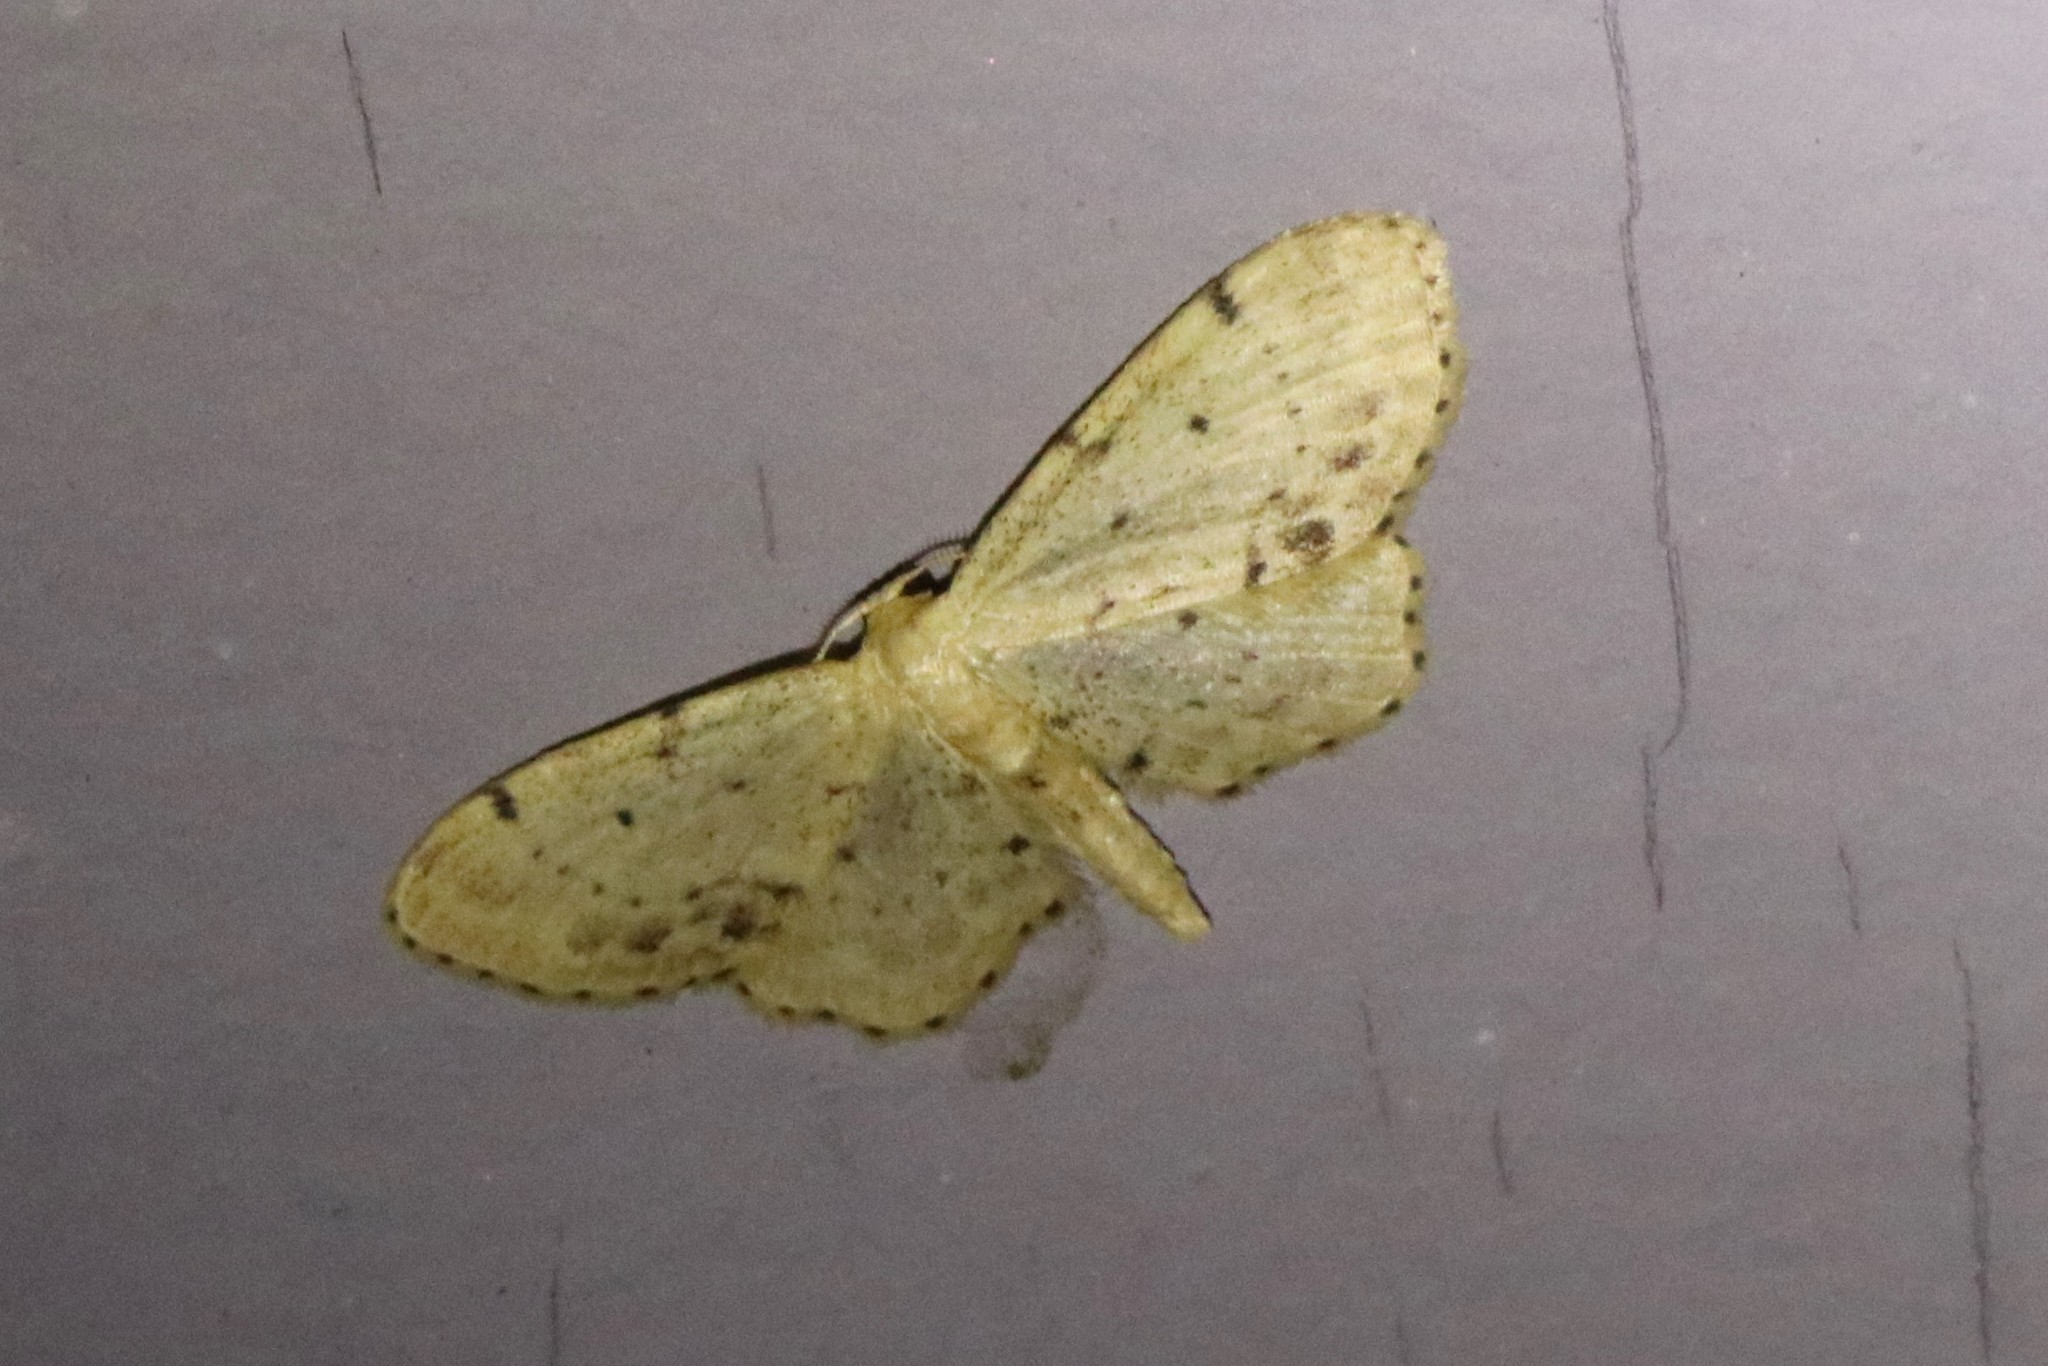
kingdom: Animalia
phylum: Arthropoda
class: Insecta
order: Lepidoptera
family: Geometridae
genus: Idaea
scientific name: Idaea dimidiata
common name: Single-dotted wave
